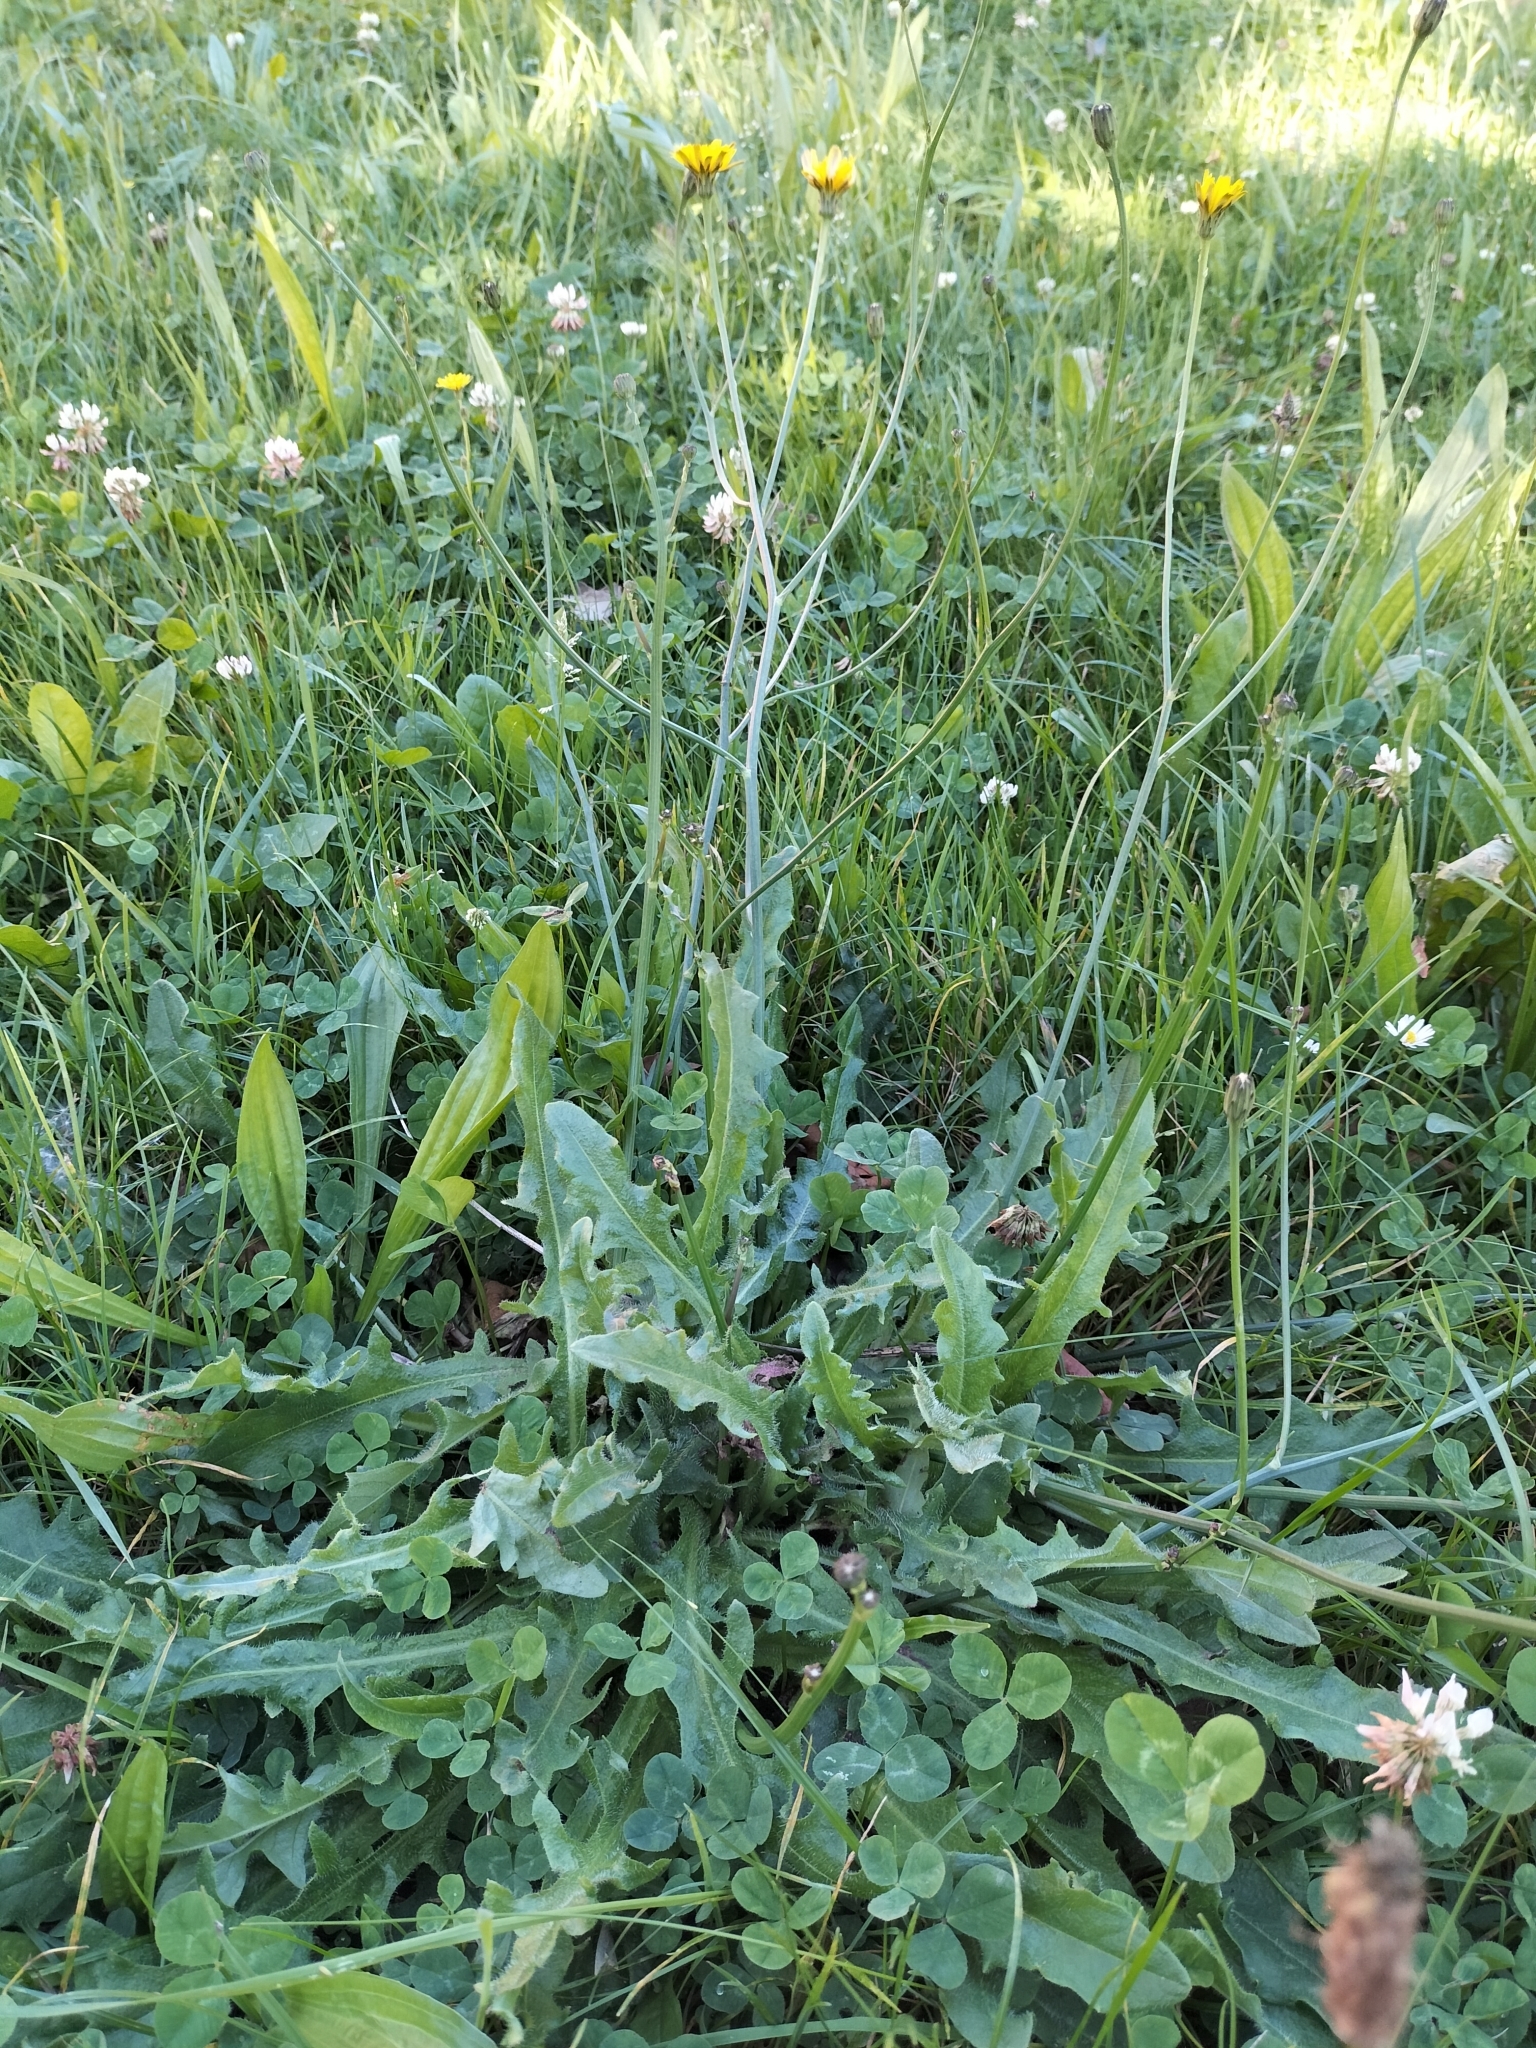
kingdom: Plantae
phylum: Tracheophyta
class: Magnoliopsida
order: Asterales
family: Asteraceae
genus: Hypochaeris
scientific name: Hypochaeris radicata
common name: Flatweed
